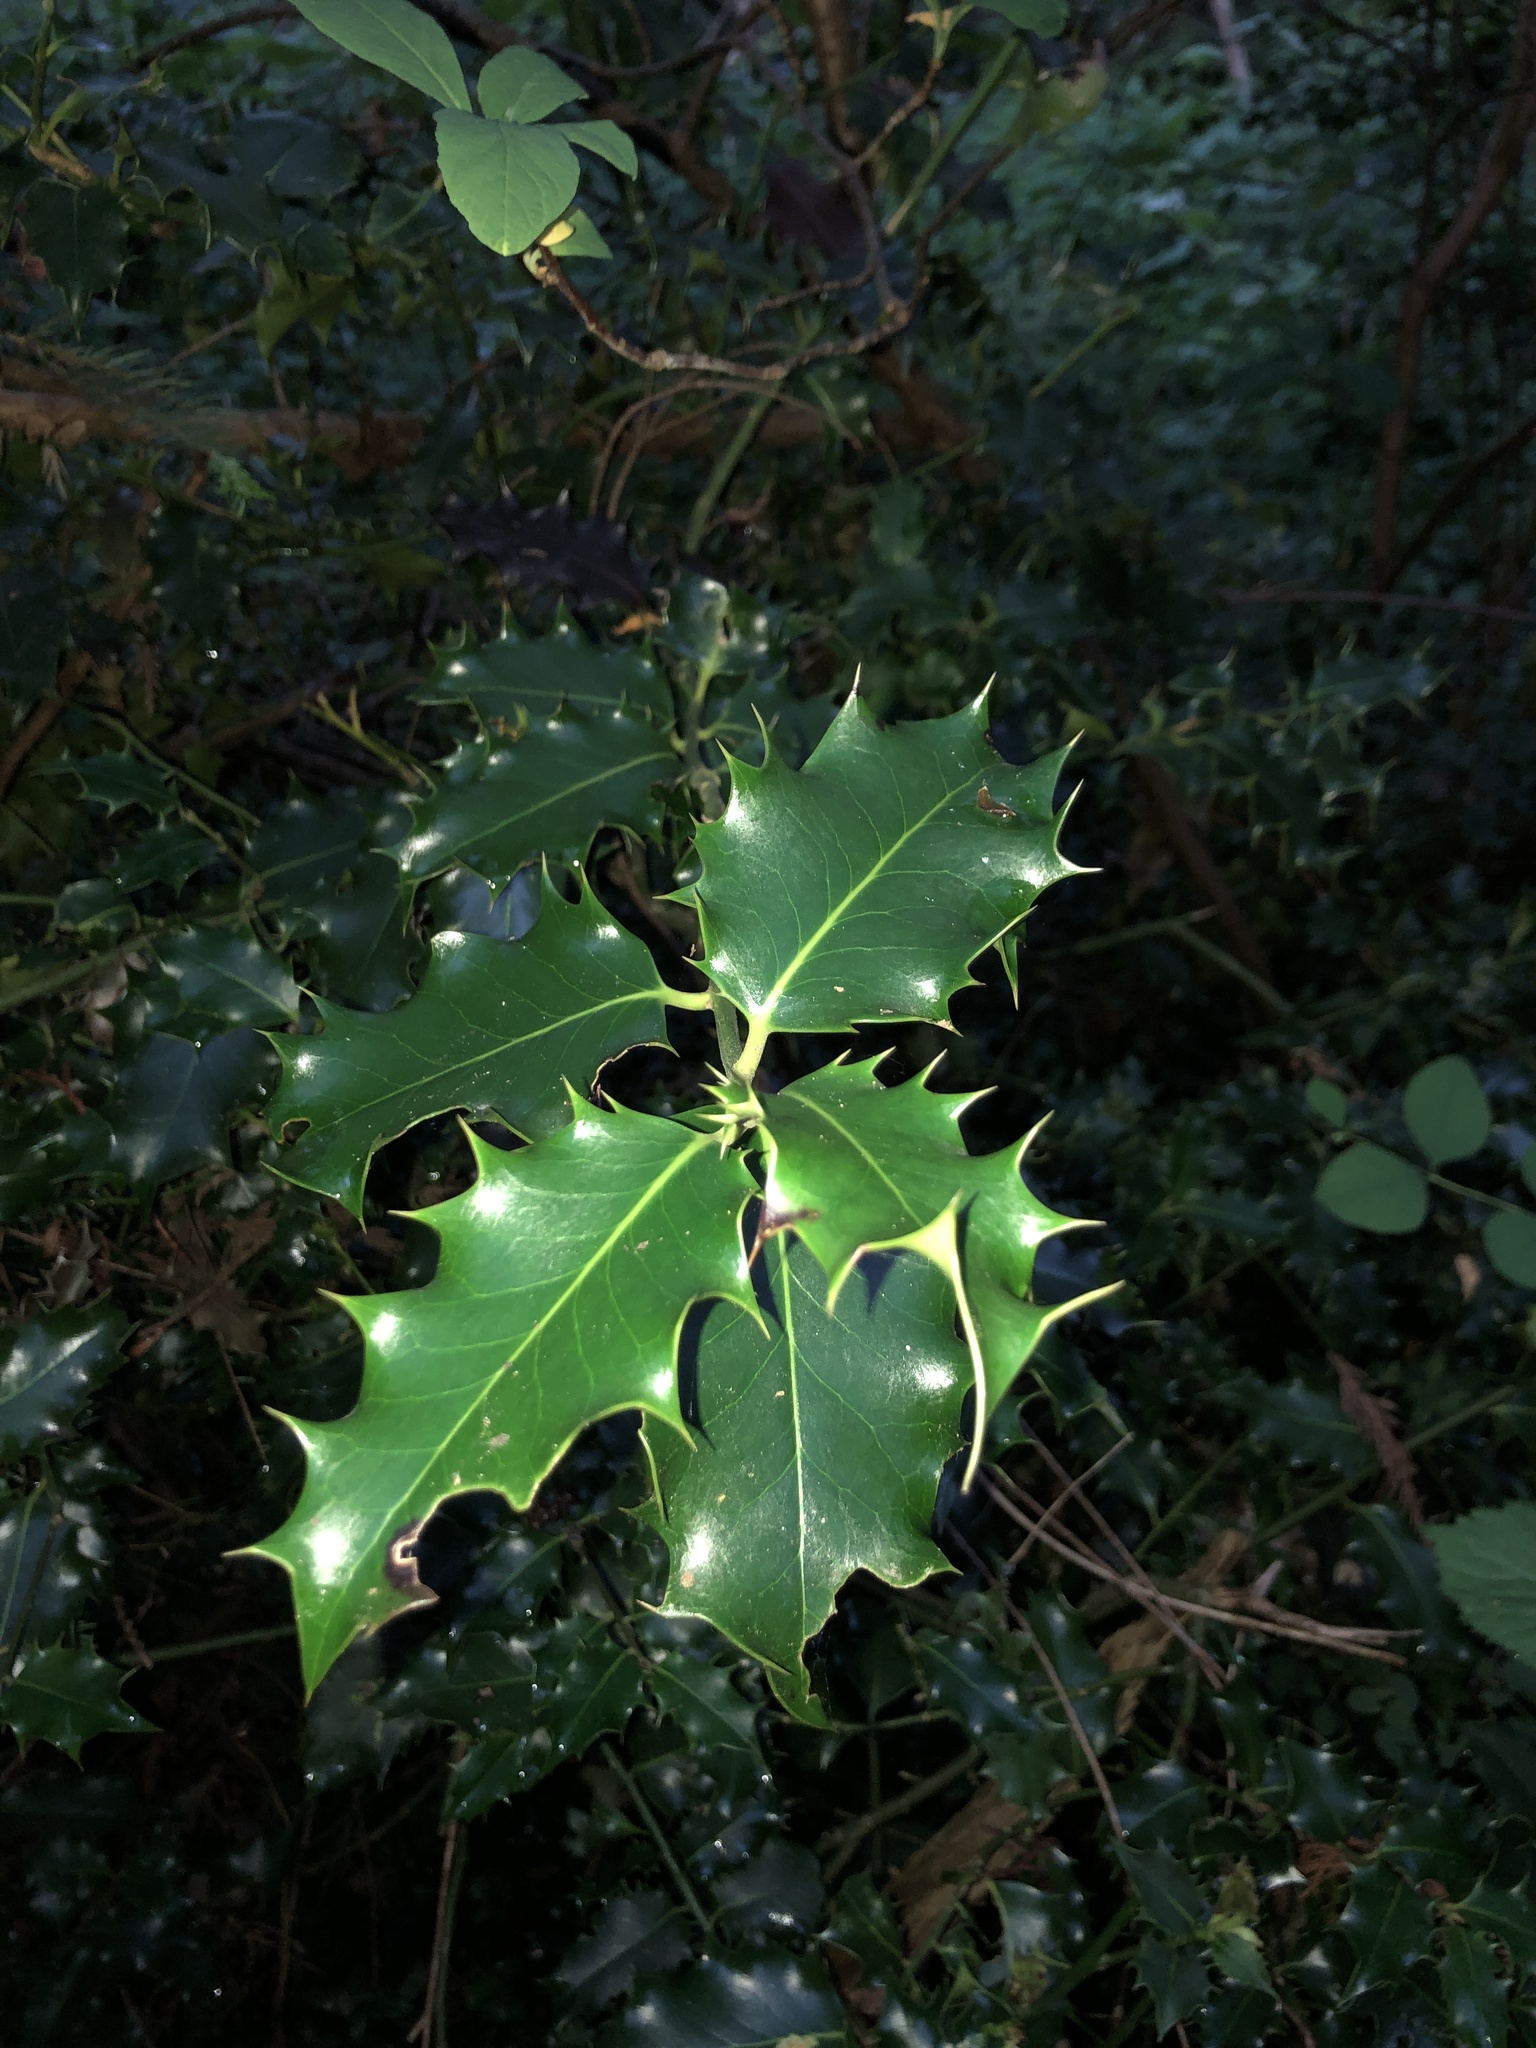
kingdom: Plantae
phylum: Tracheophyta
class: Magnoliopsida
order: Aquifoliales
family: Aquifoliaceae
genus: Ilex
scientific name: Ilex aquifolium
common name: English holly
